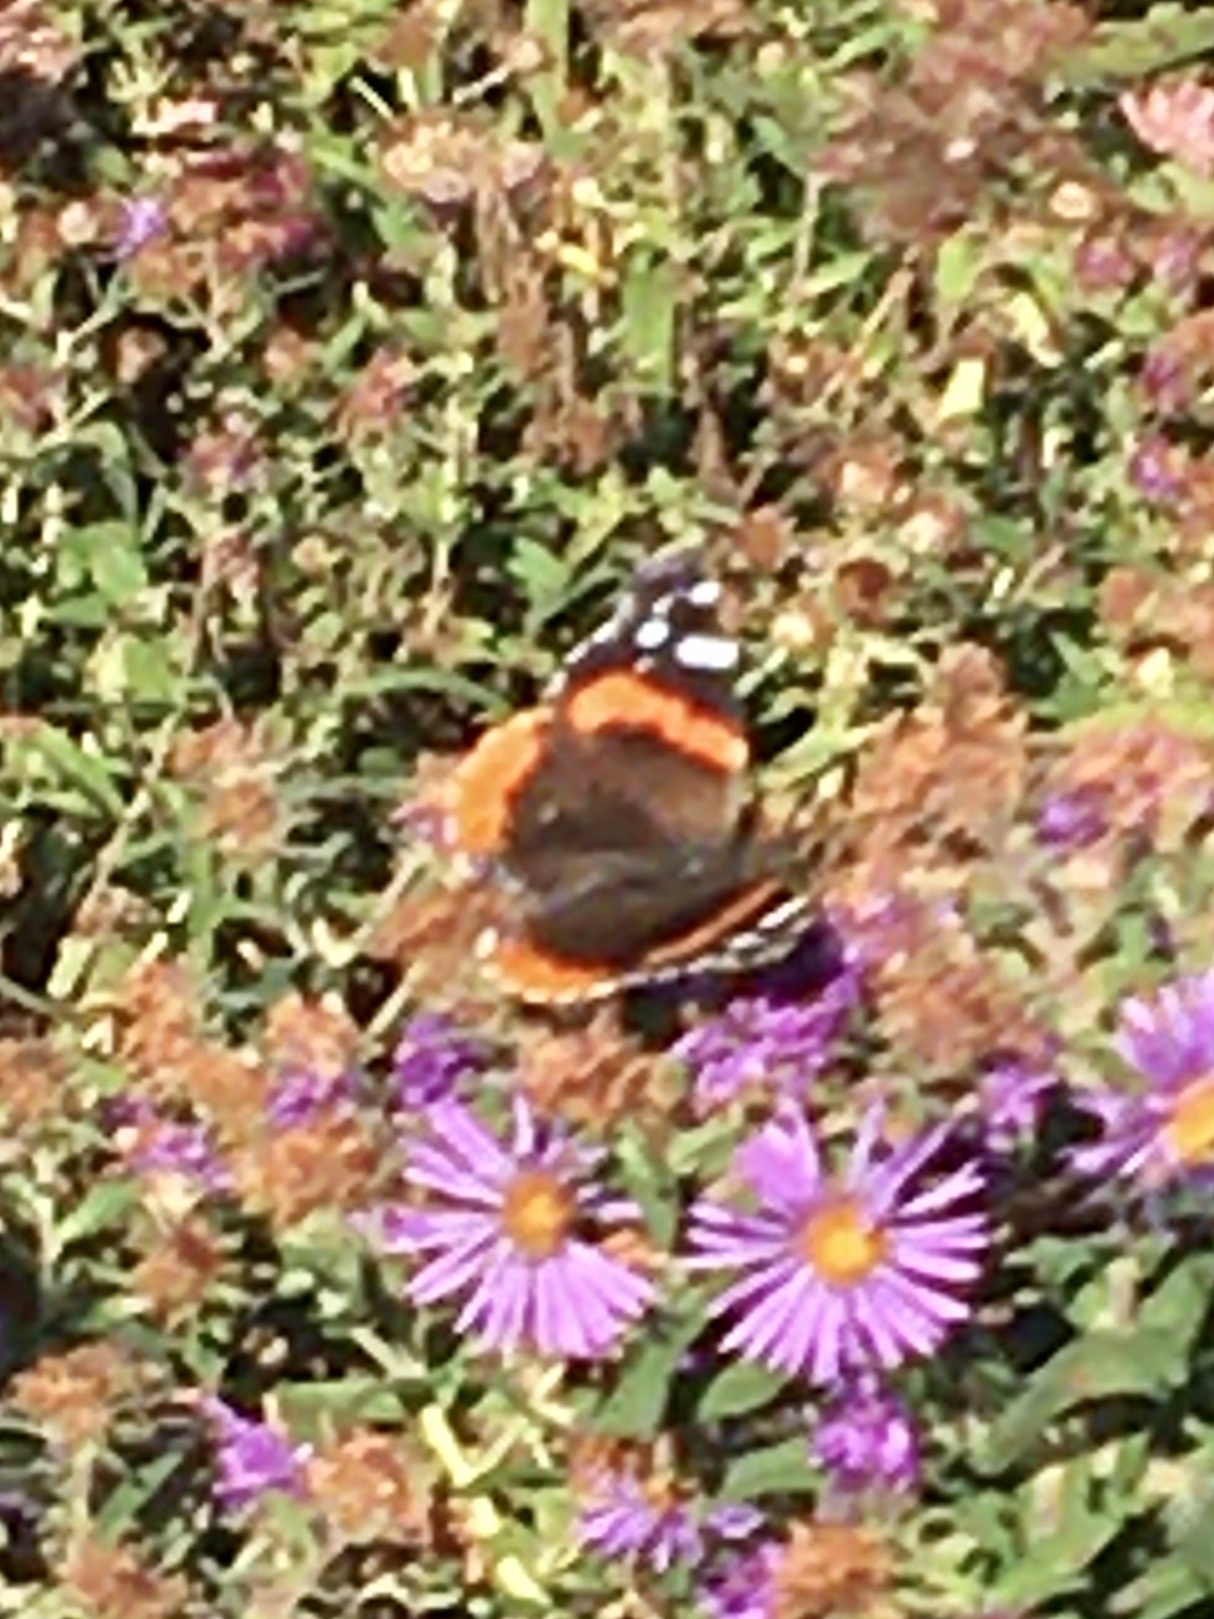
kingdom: Animalia
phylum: Arthropoda
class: Insecta
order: Lepidoptera
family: Nymphalidae
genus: Vanessa
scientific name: Vanessa atalanta
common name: Red admiral
